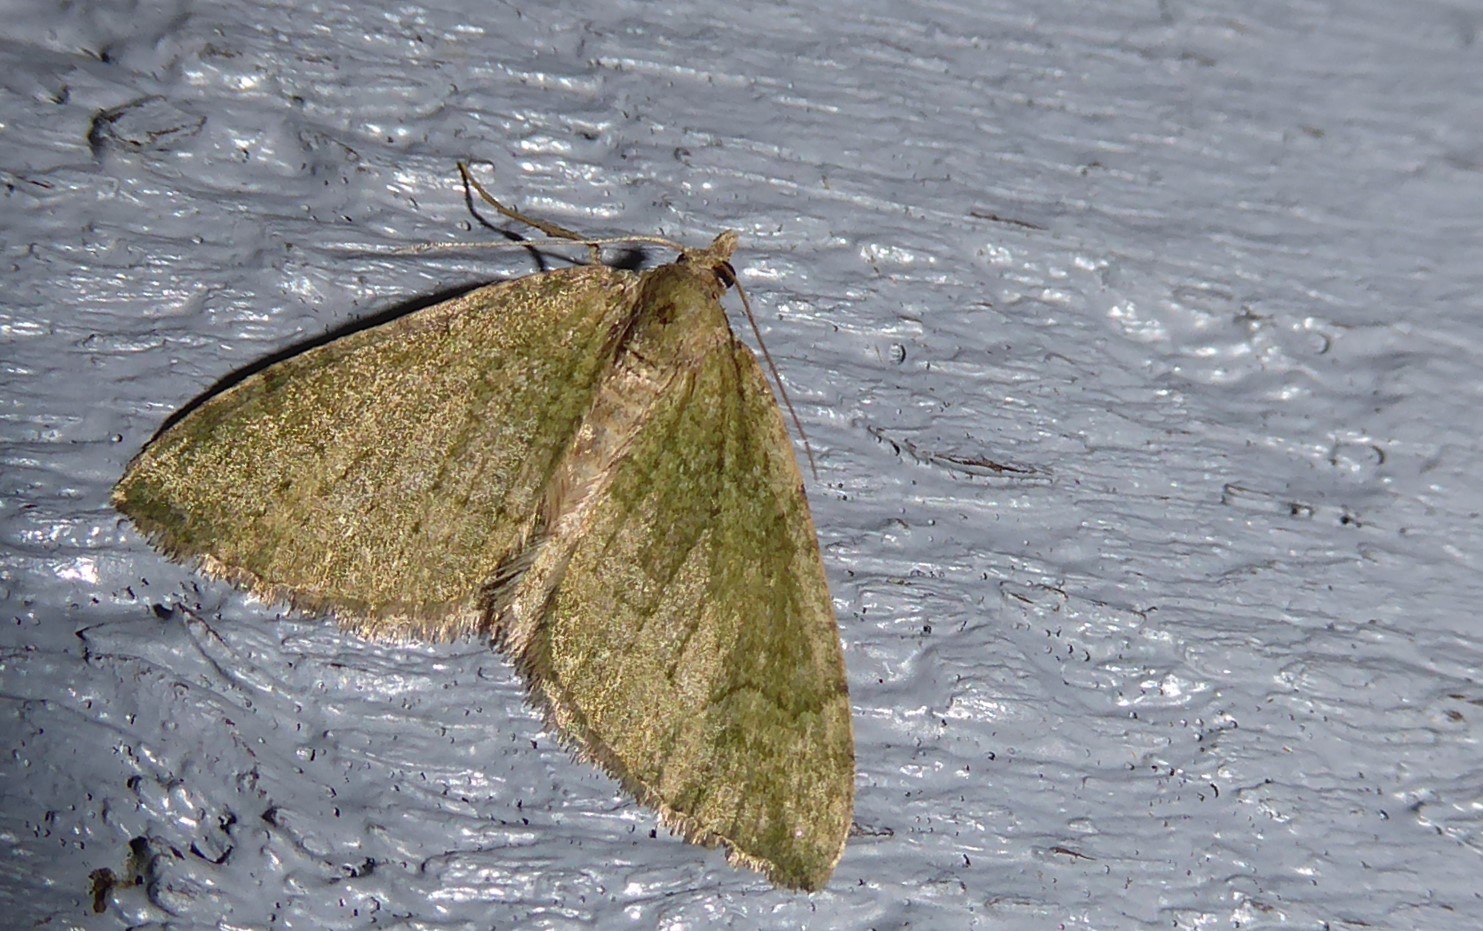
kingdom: Animalia
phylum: Arthropoda
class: Insecta
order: Lepidoptera
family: Geometridae
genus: Epyaxa
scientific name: Epyaxa rosearia
